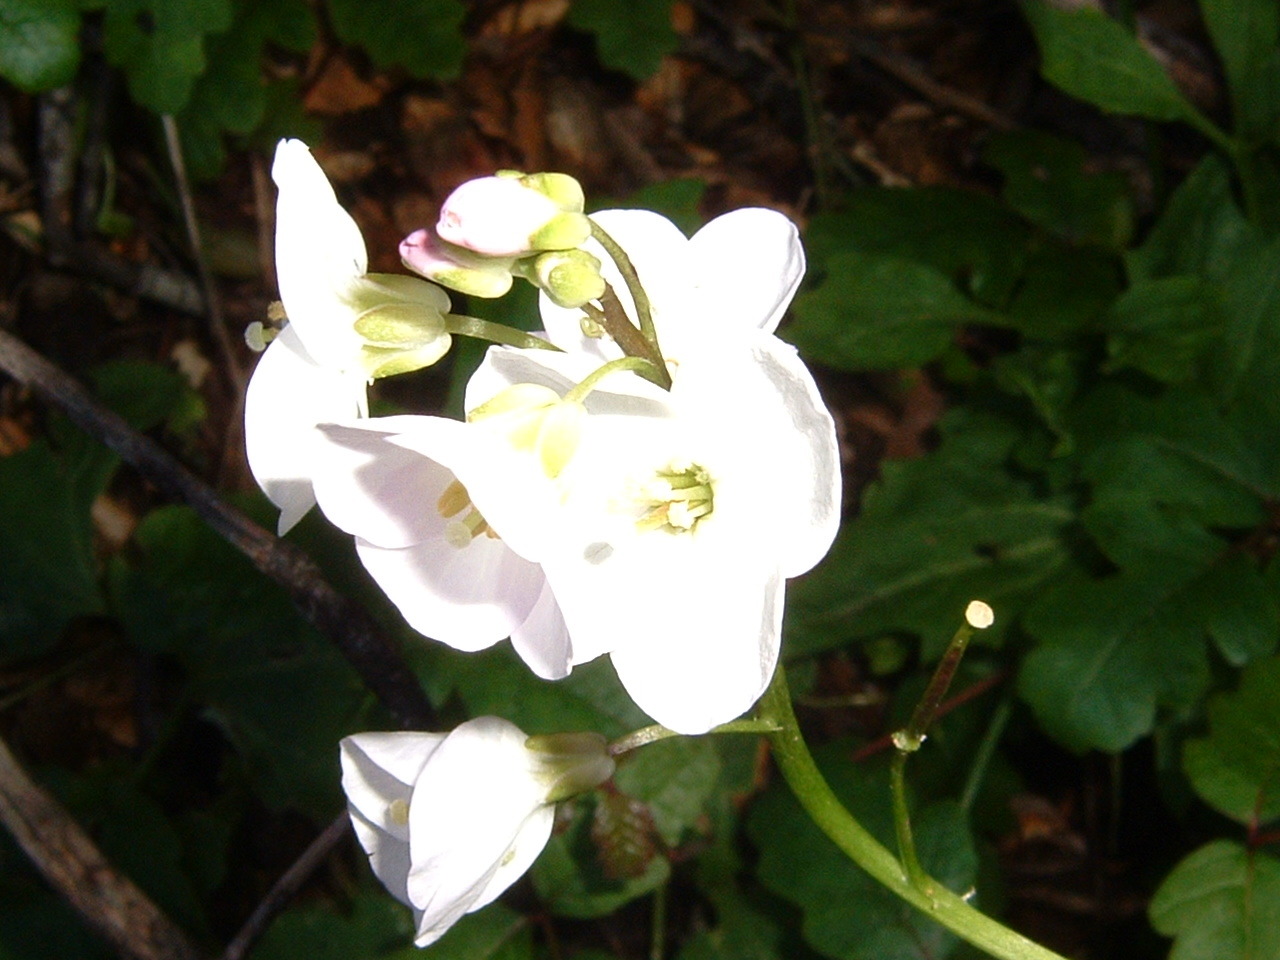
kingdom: Plantae
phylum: Tracheophyta
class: Magnoliopsida
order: Brassicales
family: Brassicaceae
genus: Cardamine
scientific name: Cardamine californica
